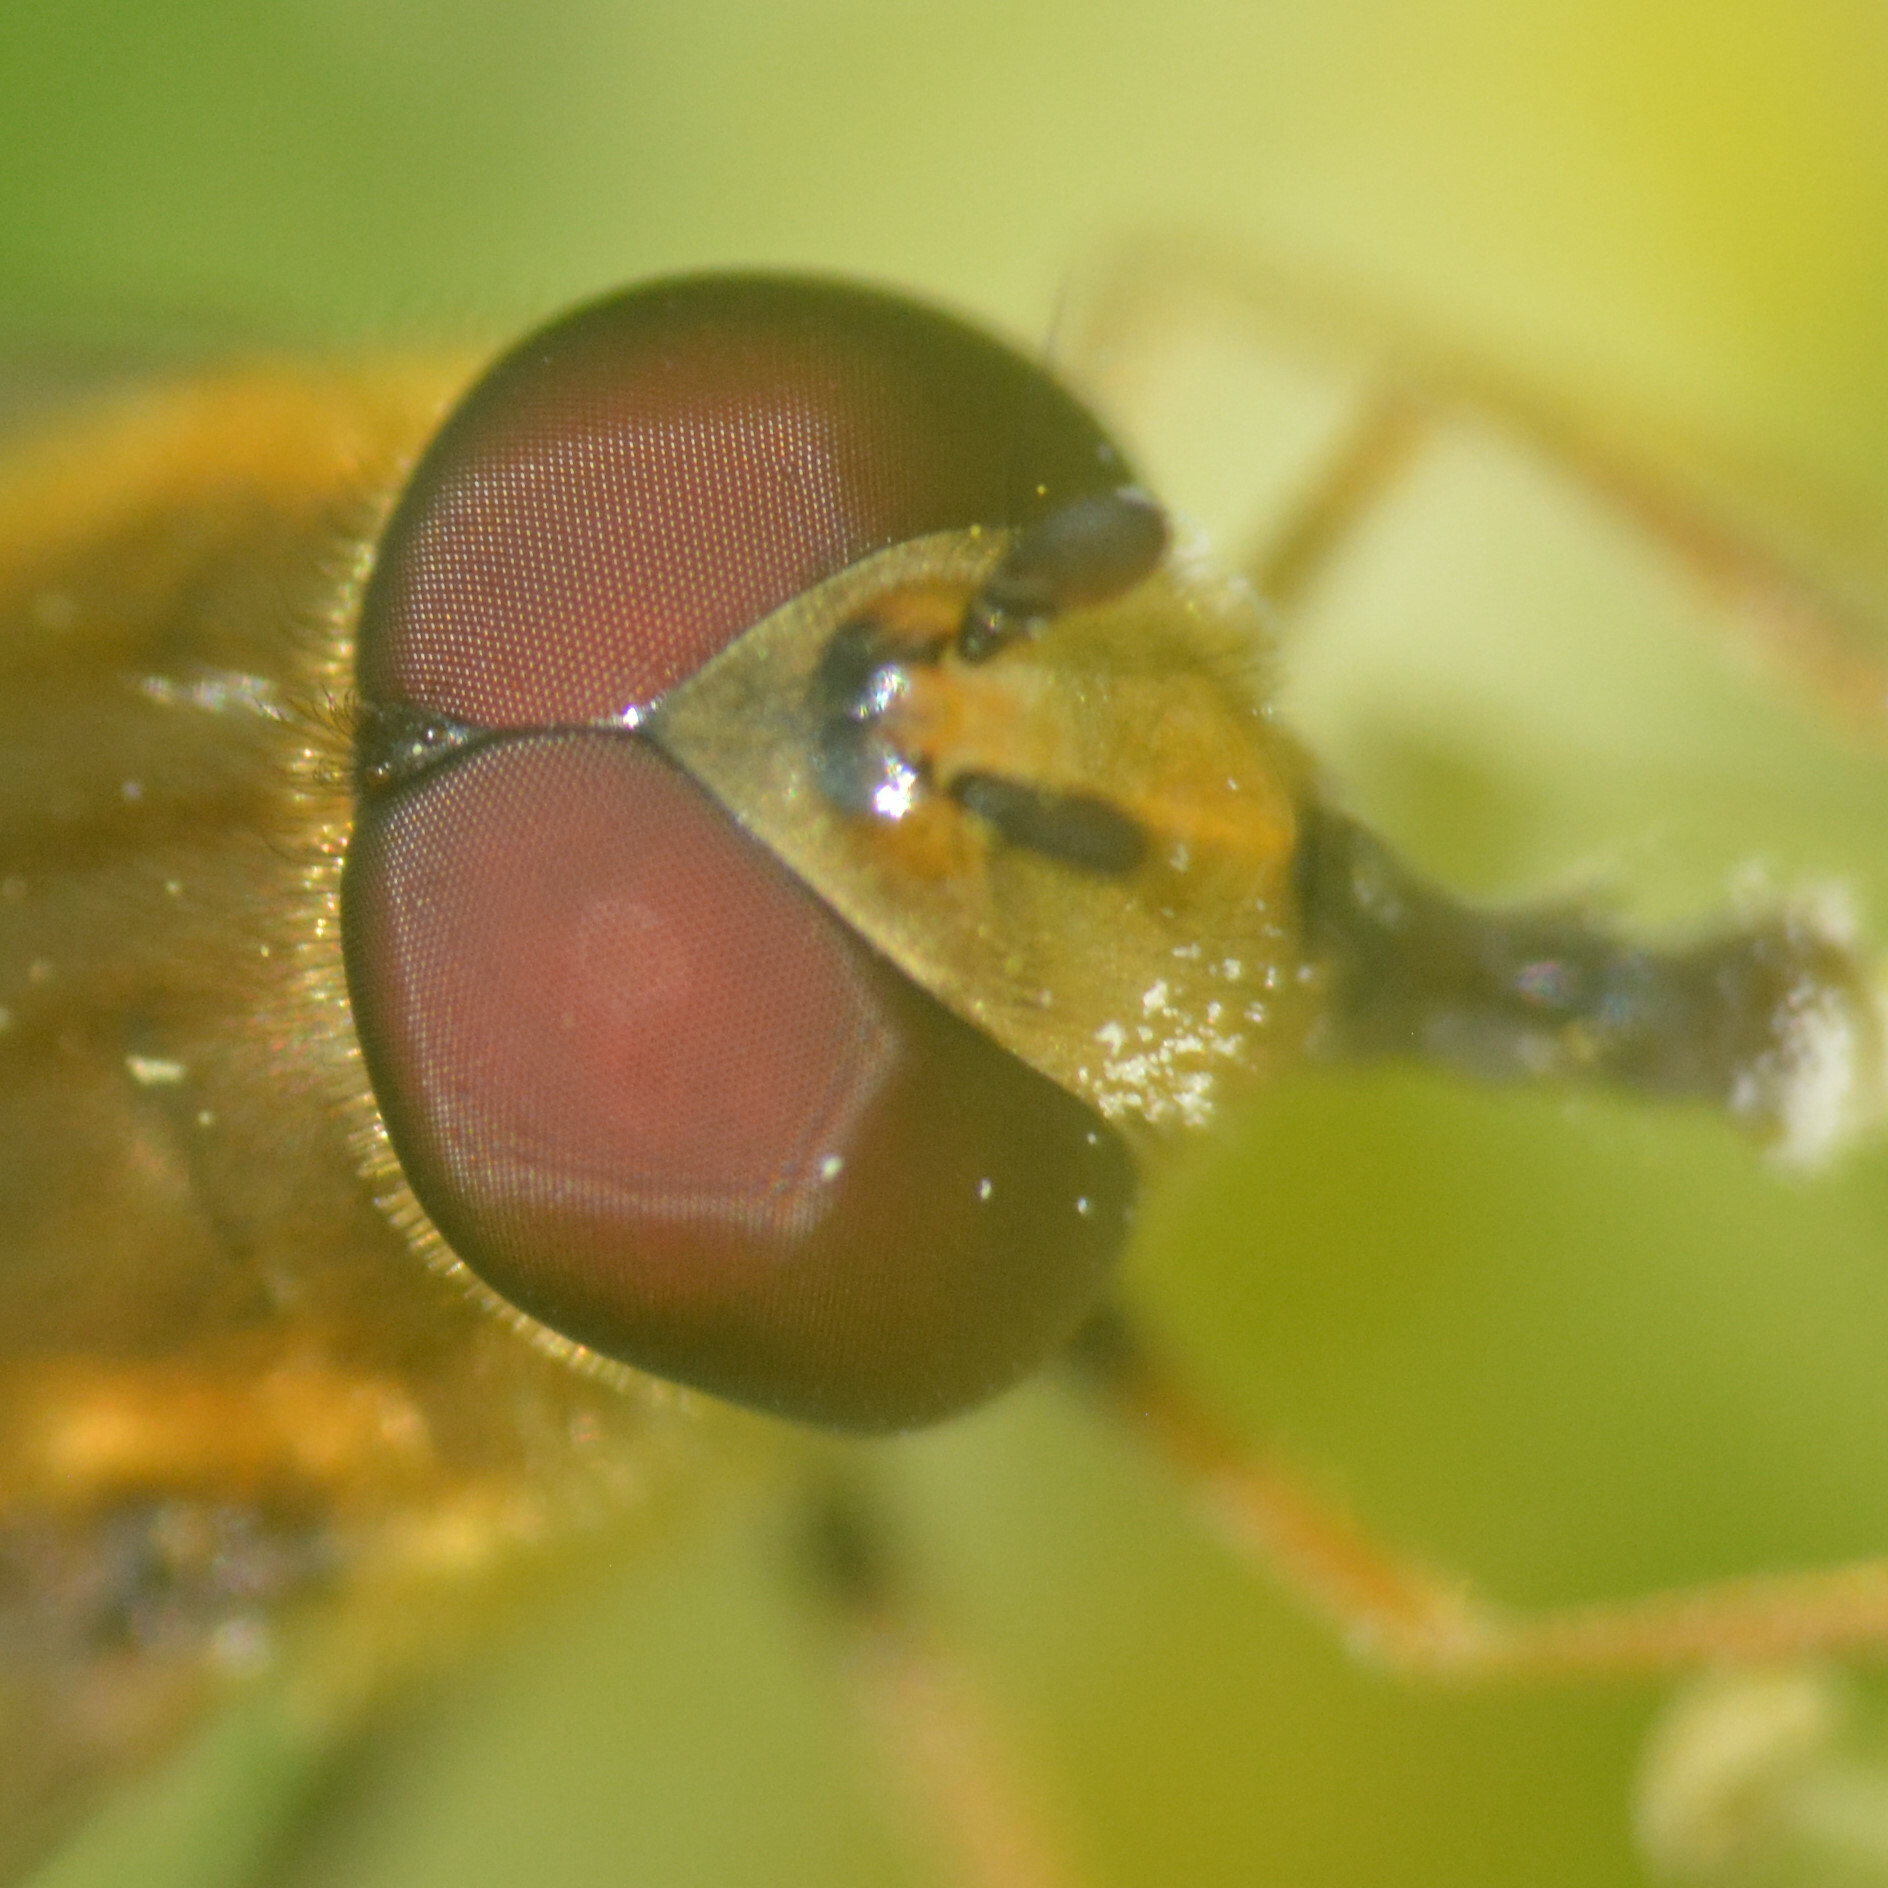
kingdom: Animalia
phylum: Arthropoda
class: Insecta
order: Diptera
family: Syrphidae
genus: Syrphus
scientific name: Syrphus
